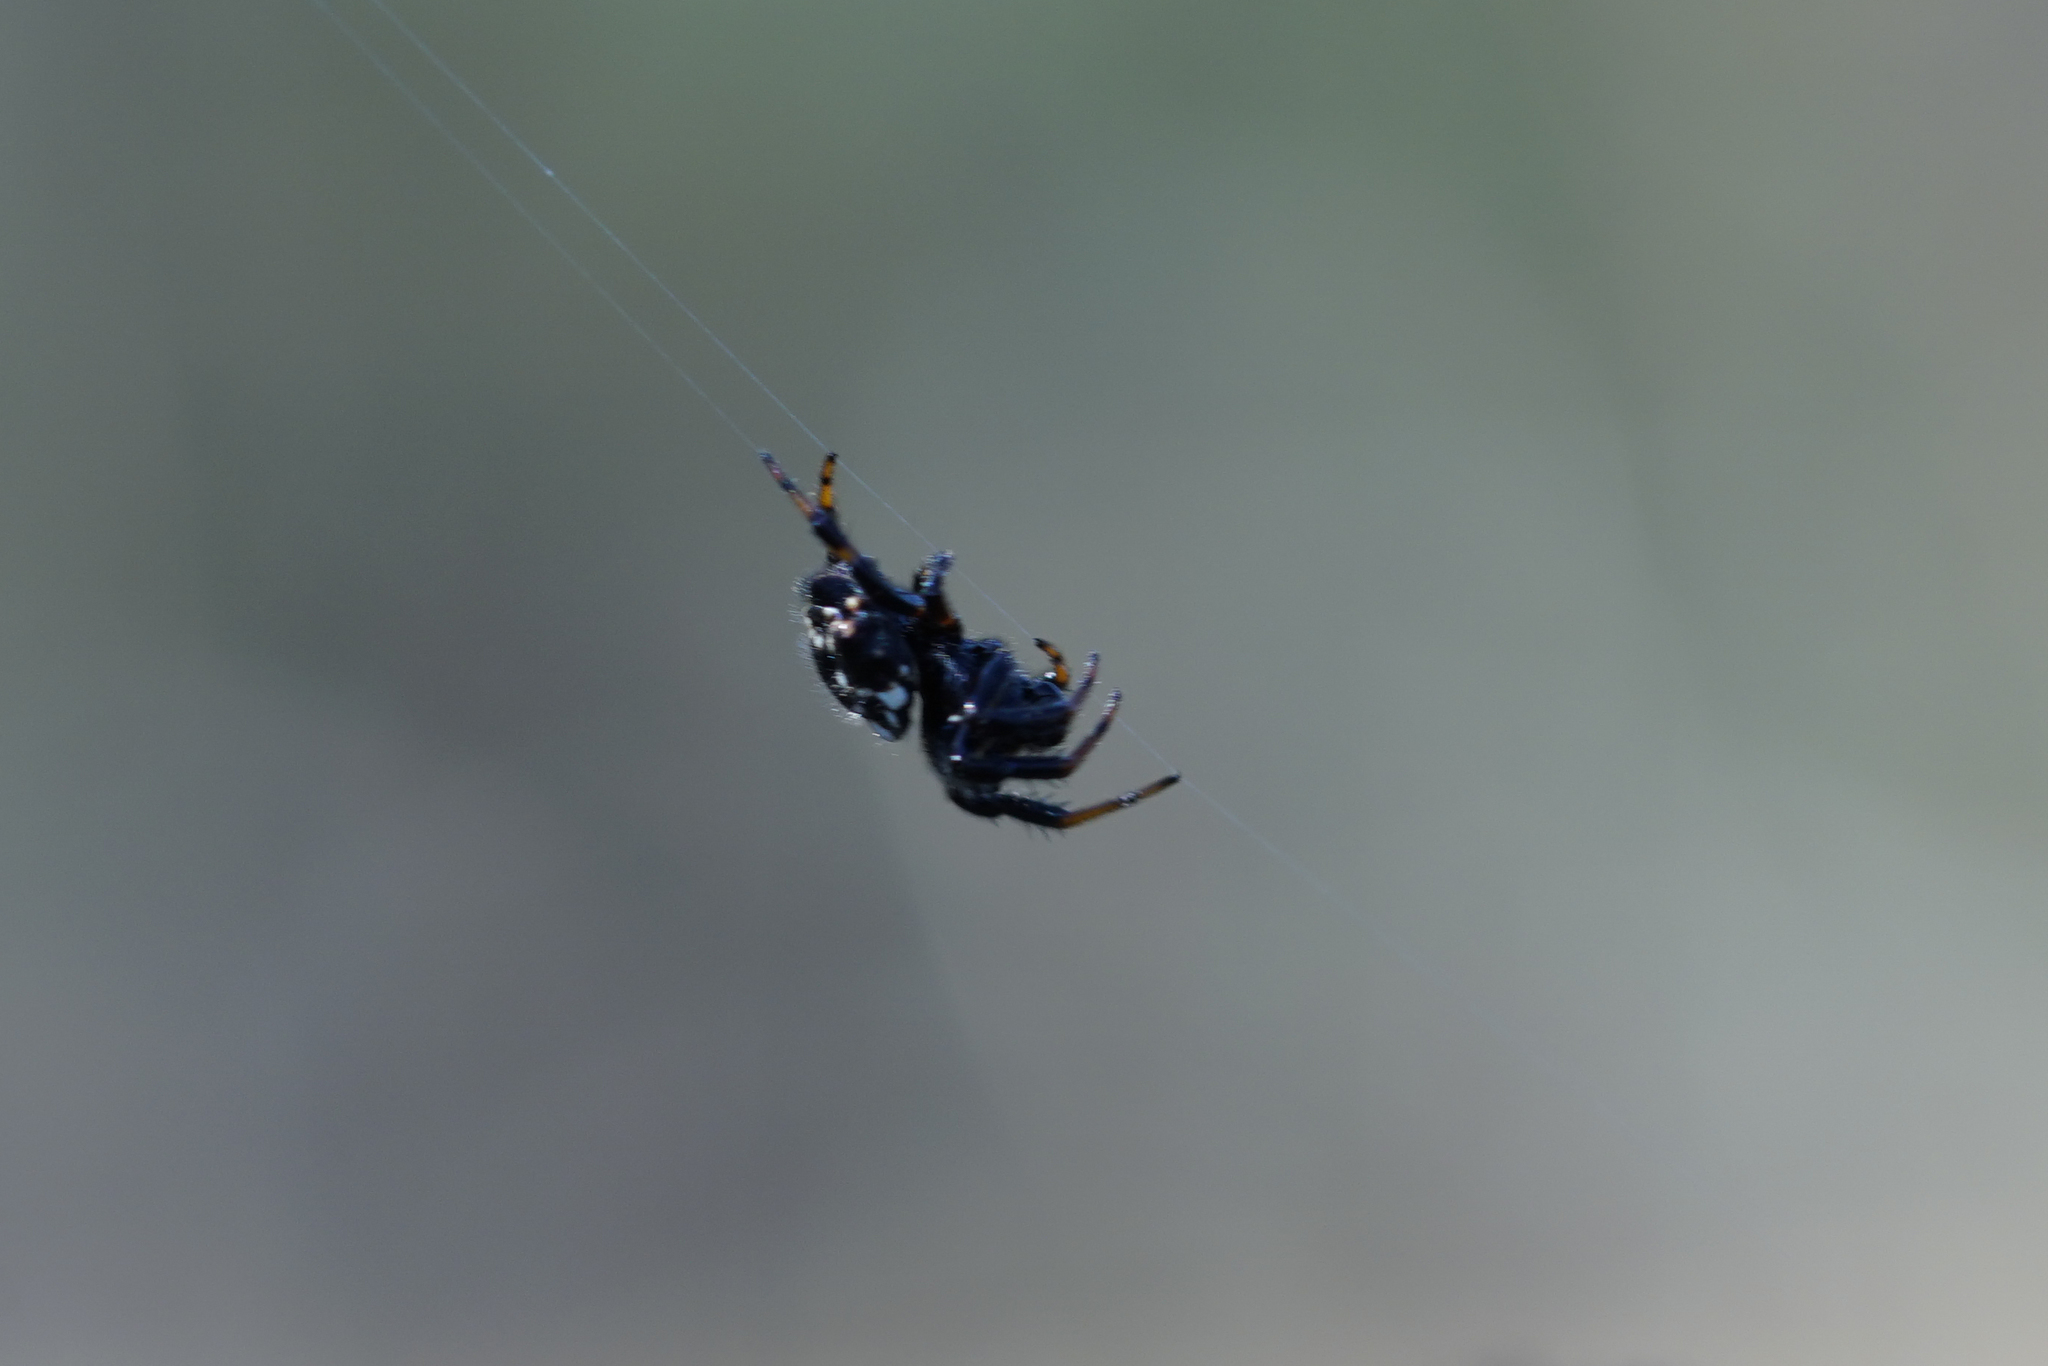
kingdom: Animalia
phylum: Arthropoda
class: Arachnida
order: Araneae
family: Araneidae
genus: Austracantha
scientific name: Austracantha minax
